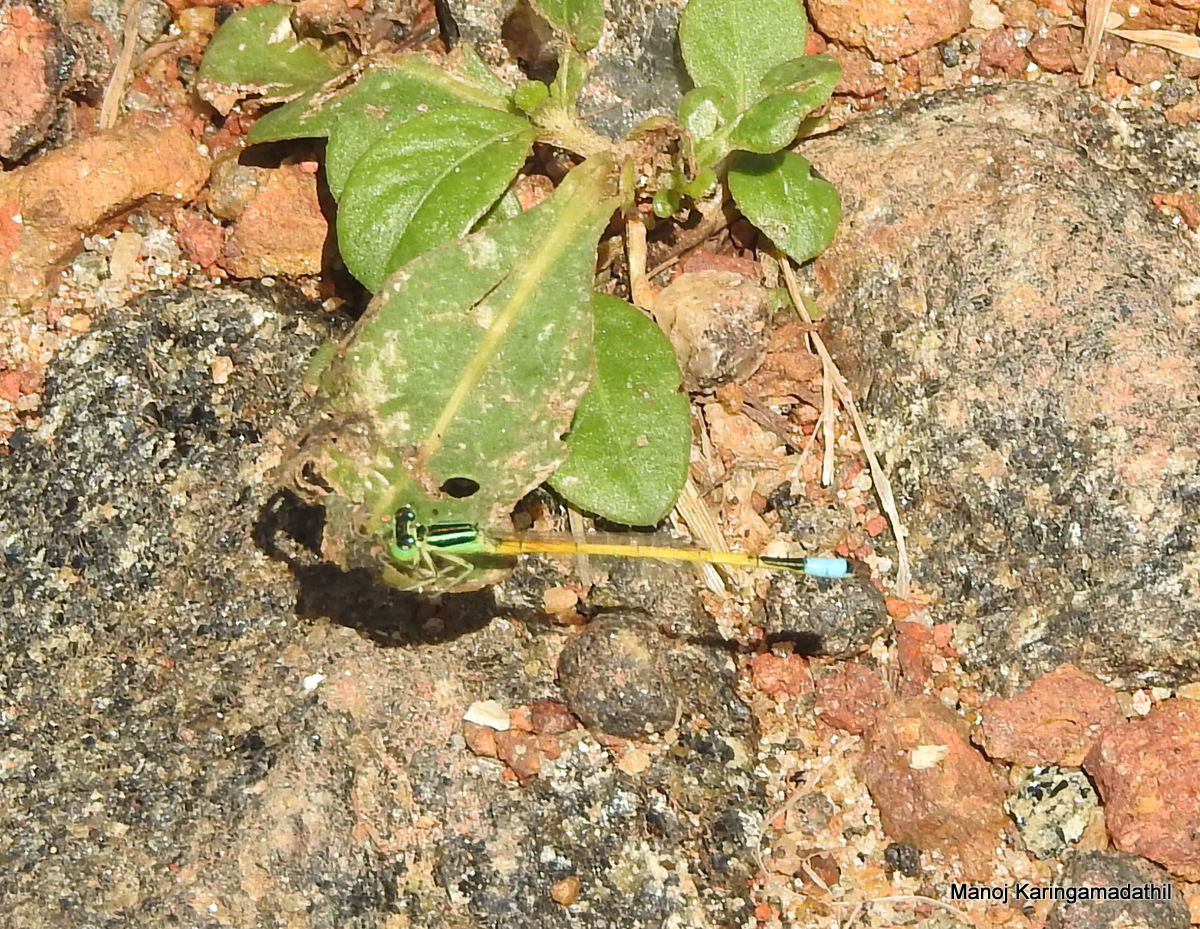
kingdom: Animalia
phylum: Arthropoda
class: Insecta
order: Odonata
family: Coenagrionidae
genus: Ischnura
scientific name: Ischnura rubilio
